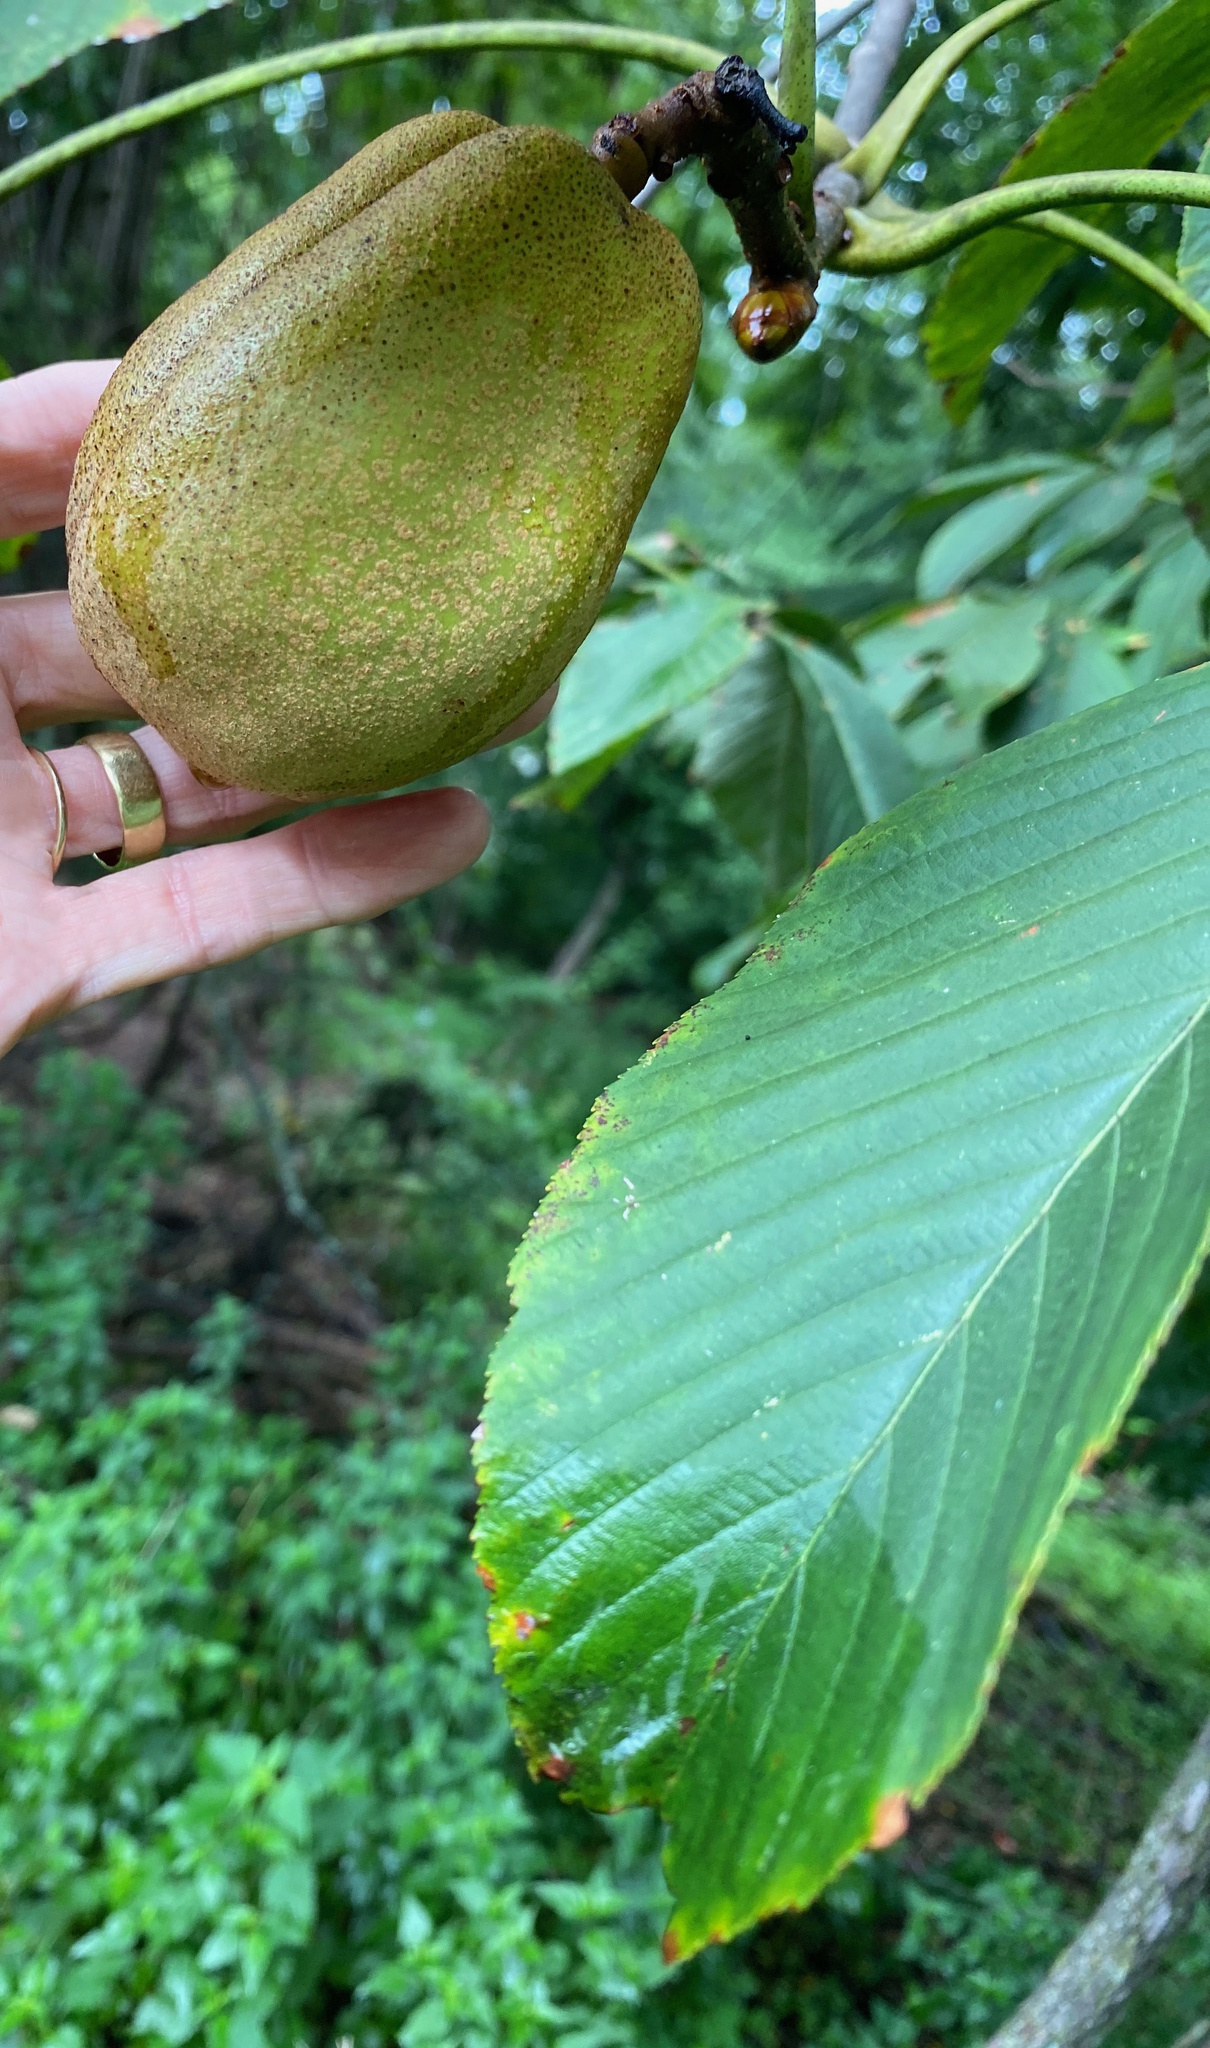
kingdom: Plantae
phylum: Tracheophyta
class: Magnoliopsida
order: Sapindales
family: Sapindaceae
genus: Aesculus
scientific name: Aesculus flava
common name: Yellow buckeye
